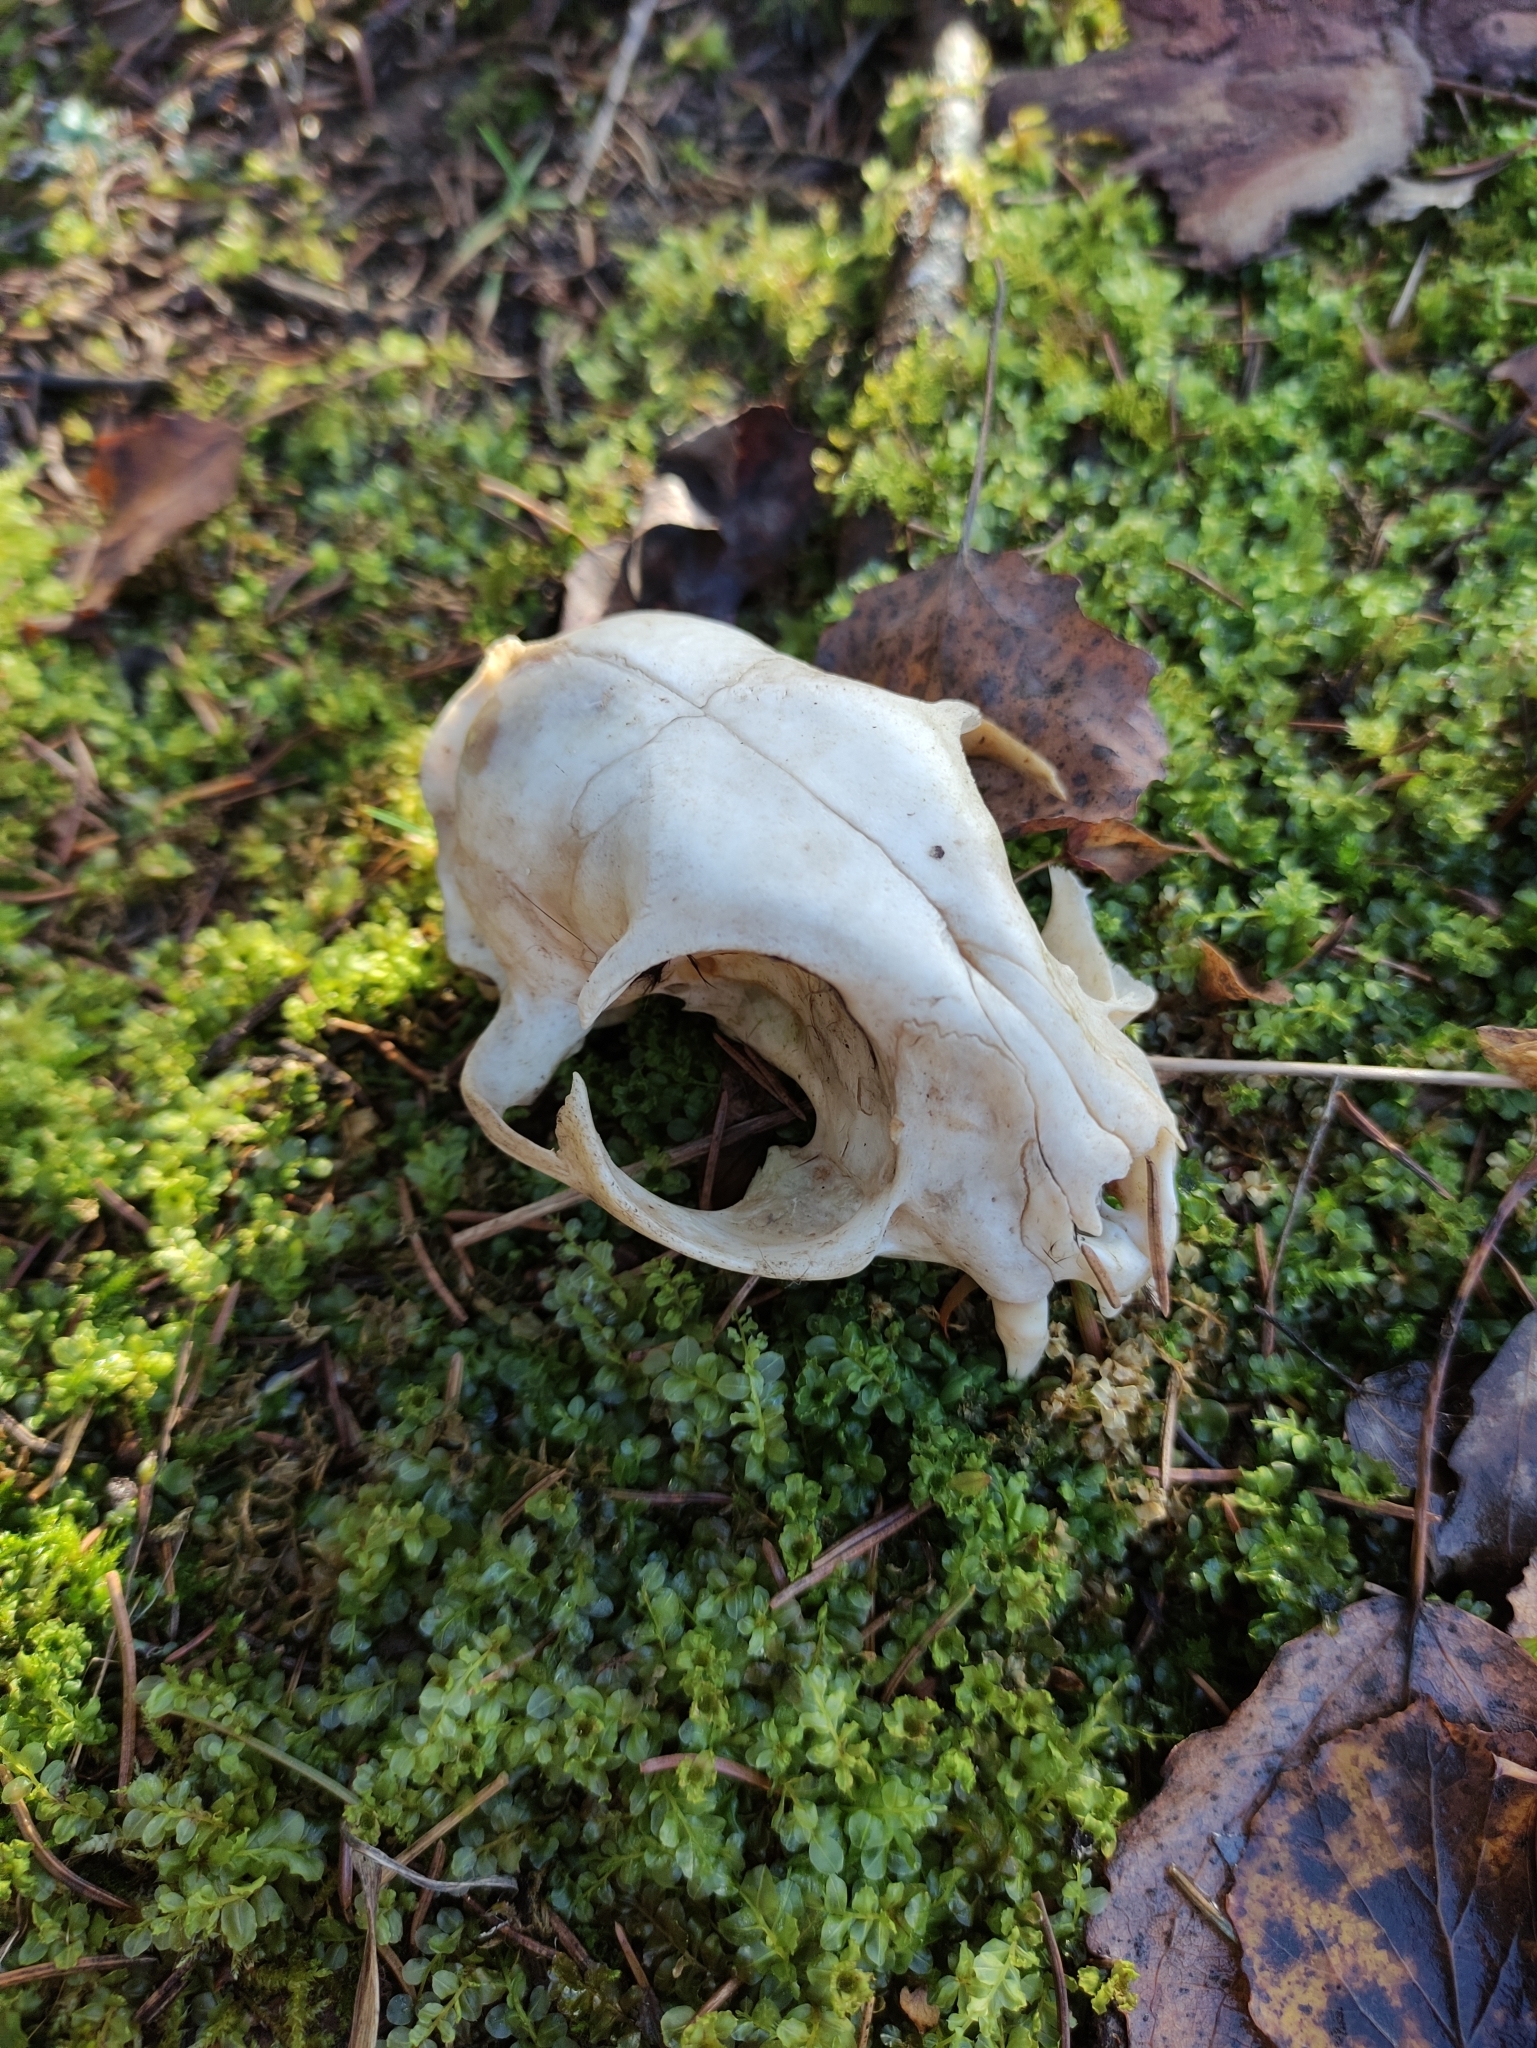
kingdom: Animalia
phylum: Chordata
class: Mammalia
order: Carnivora
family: Felidae
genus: Felis
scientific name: Felis catus
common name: Domestic cat
